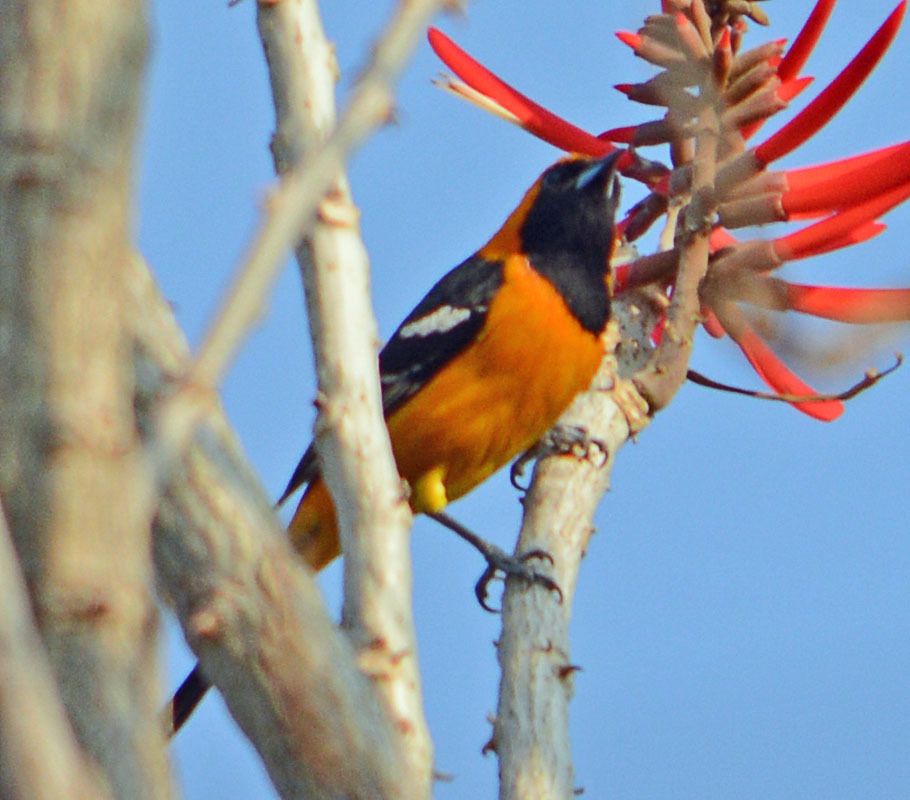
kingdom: Animalia
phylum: Chordata
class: Aves
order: Passeriformes
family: Icteridae
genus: Icterus
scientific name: Icterus cucullatus
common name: Hooded oriole
